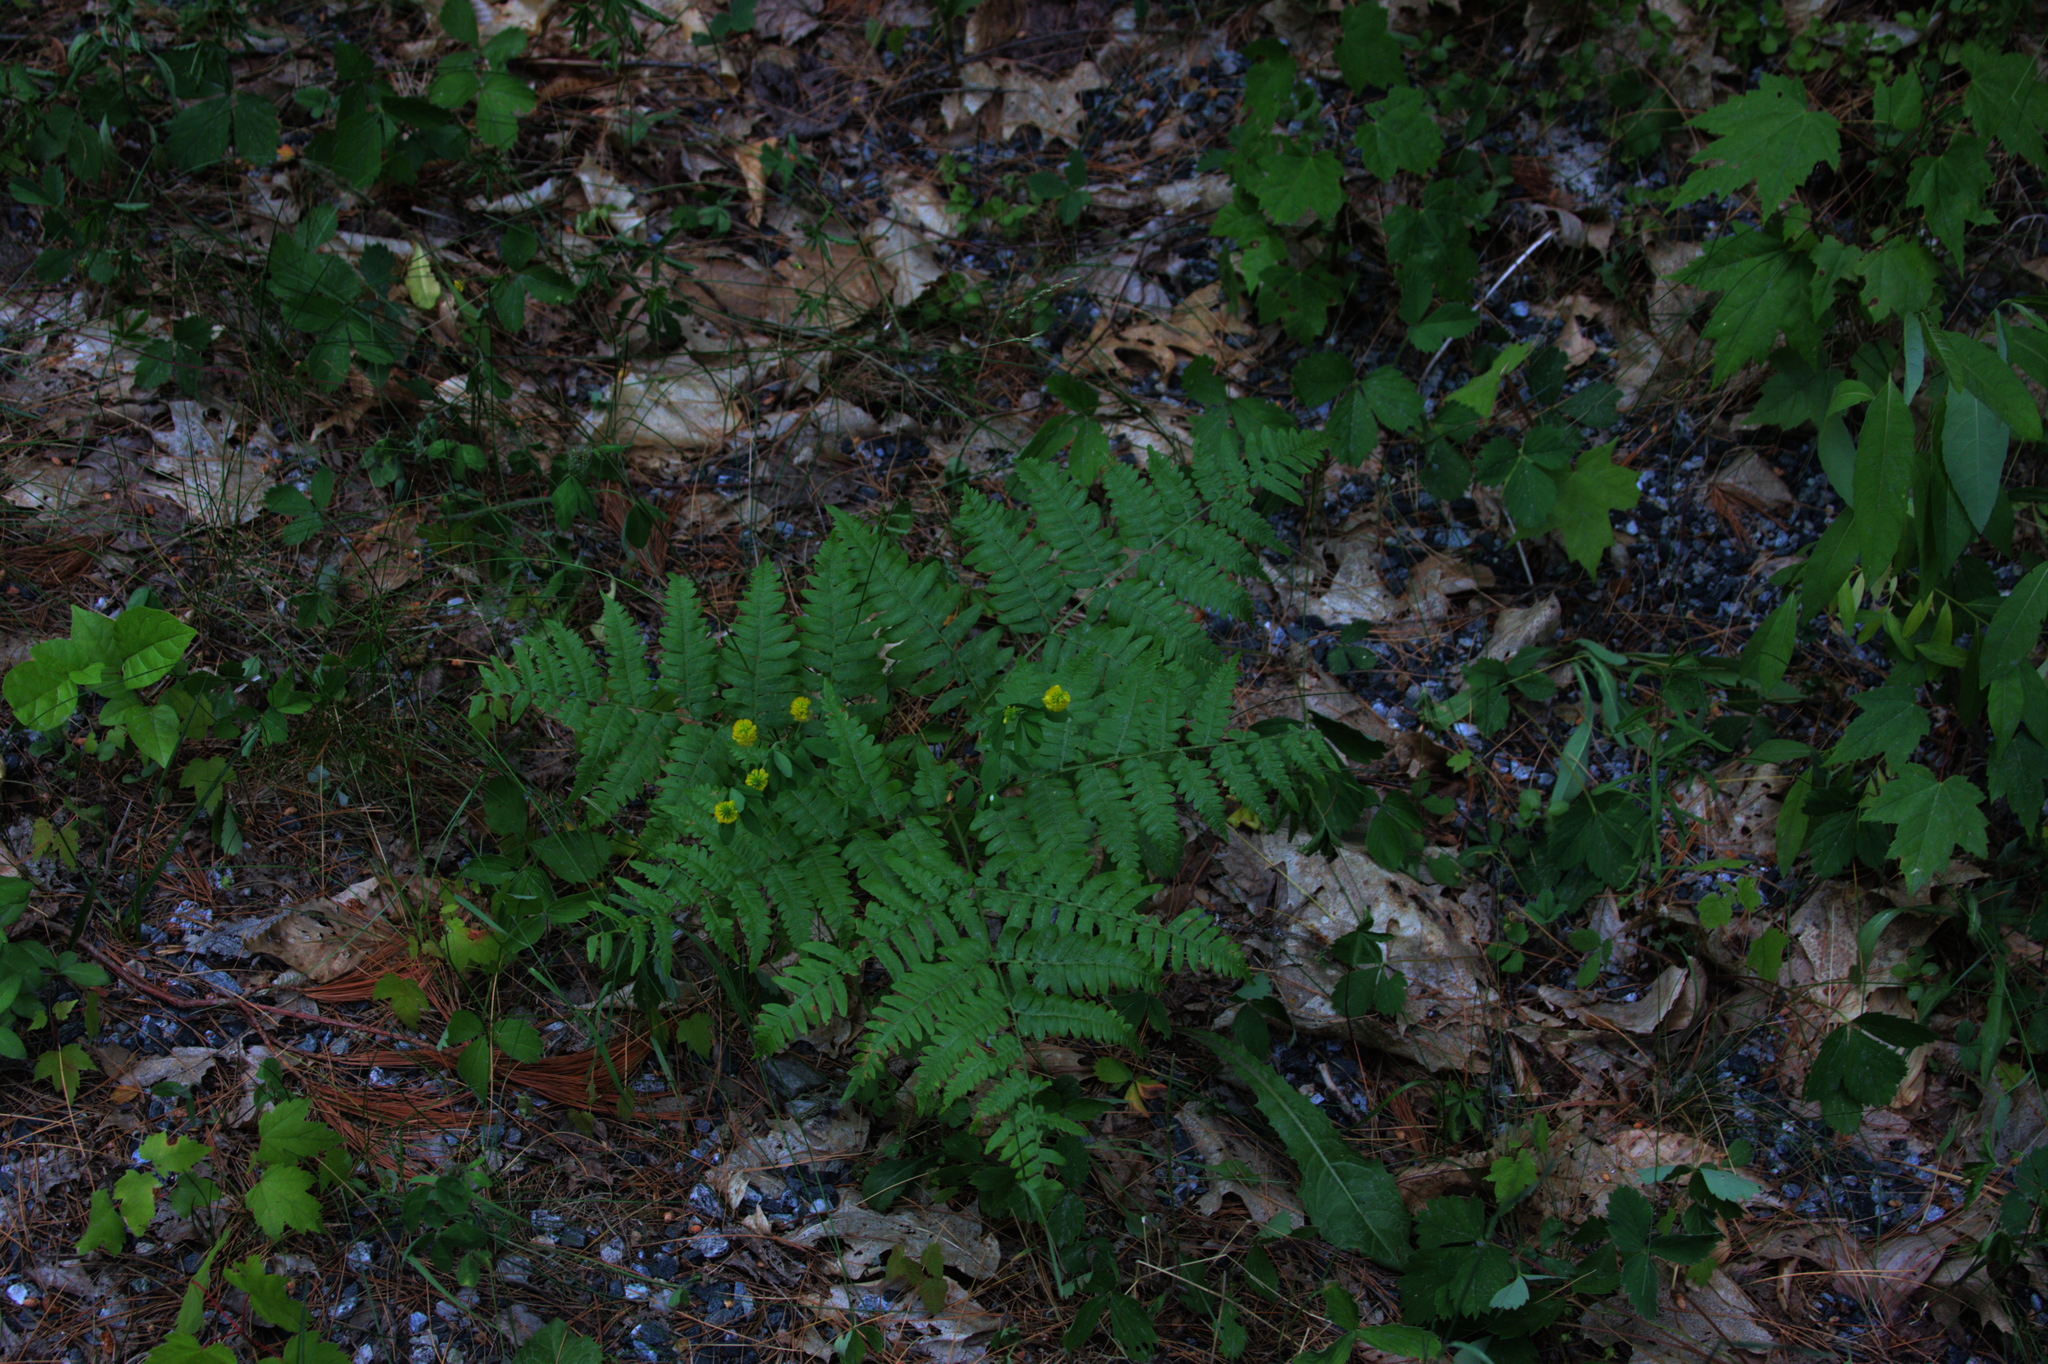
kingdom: Plantae
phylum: Tracheophyta
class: Polypodiopsida
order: Polypodiales
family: Dennstaedtiaceae
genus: Pteridium
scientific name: Pteridium aquilinum
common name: Bracken
